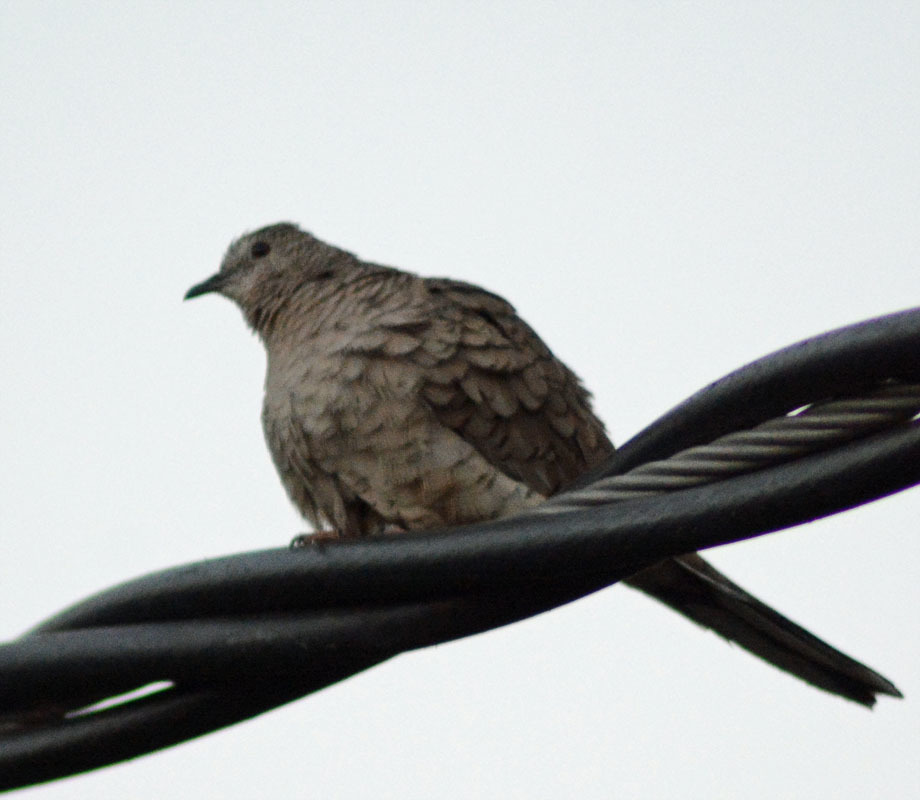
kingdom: Animalia
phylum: Chordata
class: Aves
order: Columbiformes
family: Columbidae
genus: Columbina
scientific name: Columbina inca
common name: Inca dove
